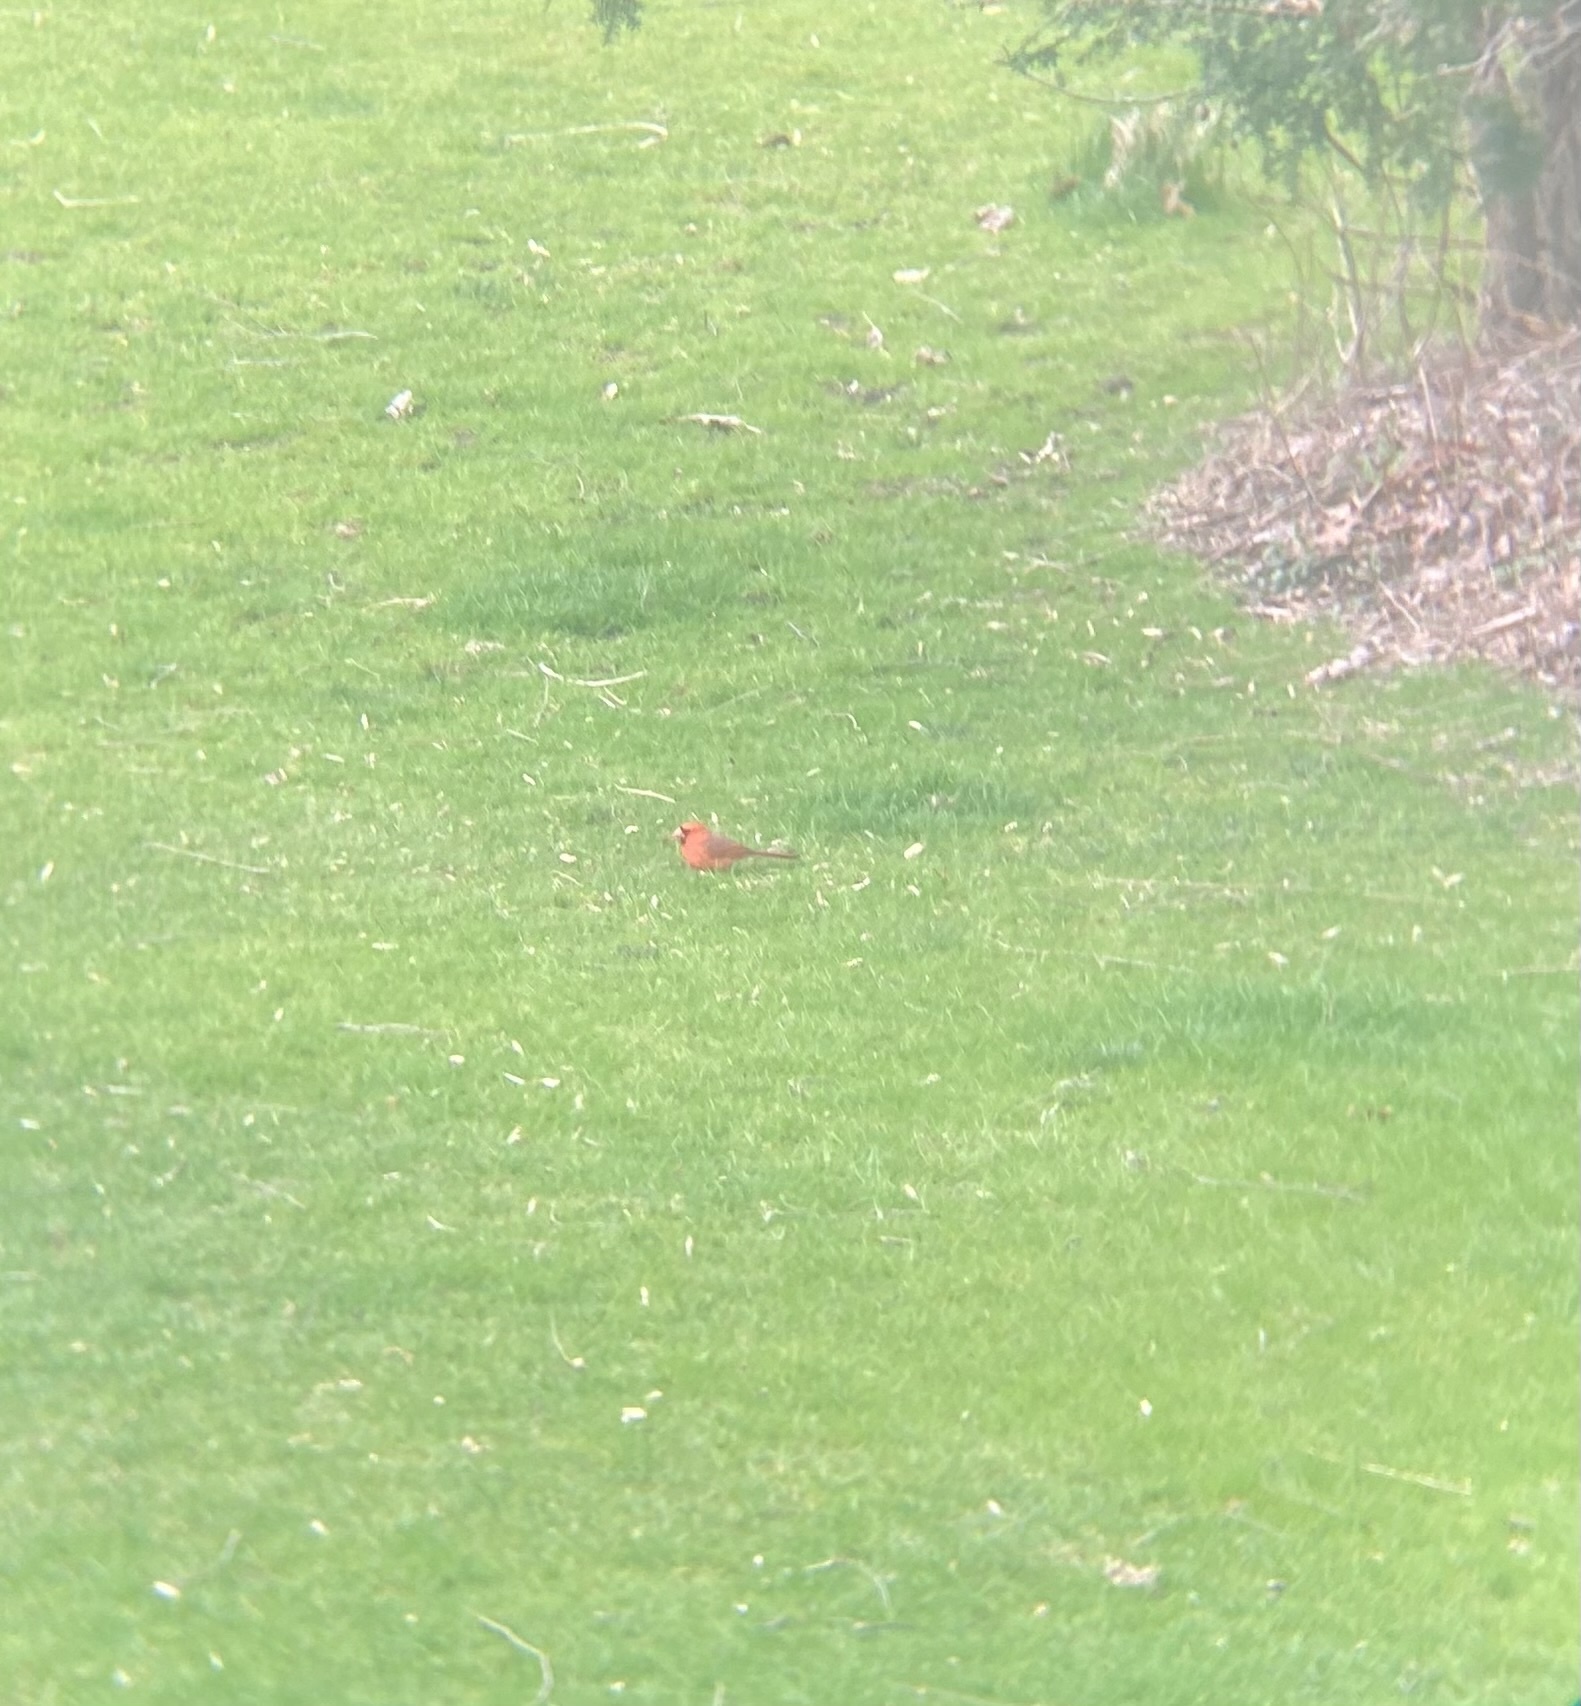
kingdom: Animalia
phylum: Chordata
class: Aves
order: Passeriformes
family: Cardinalidae
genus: Cardinalis
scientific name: Cardinalis cardinalis
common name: Northern cardinal
